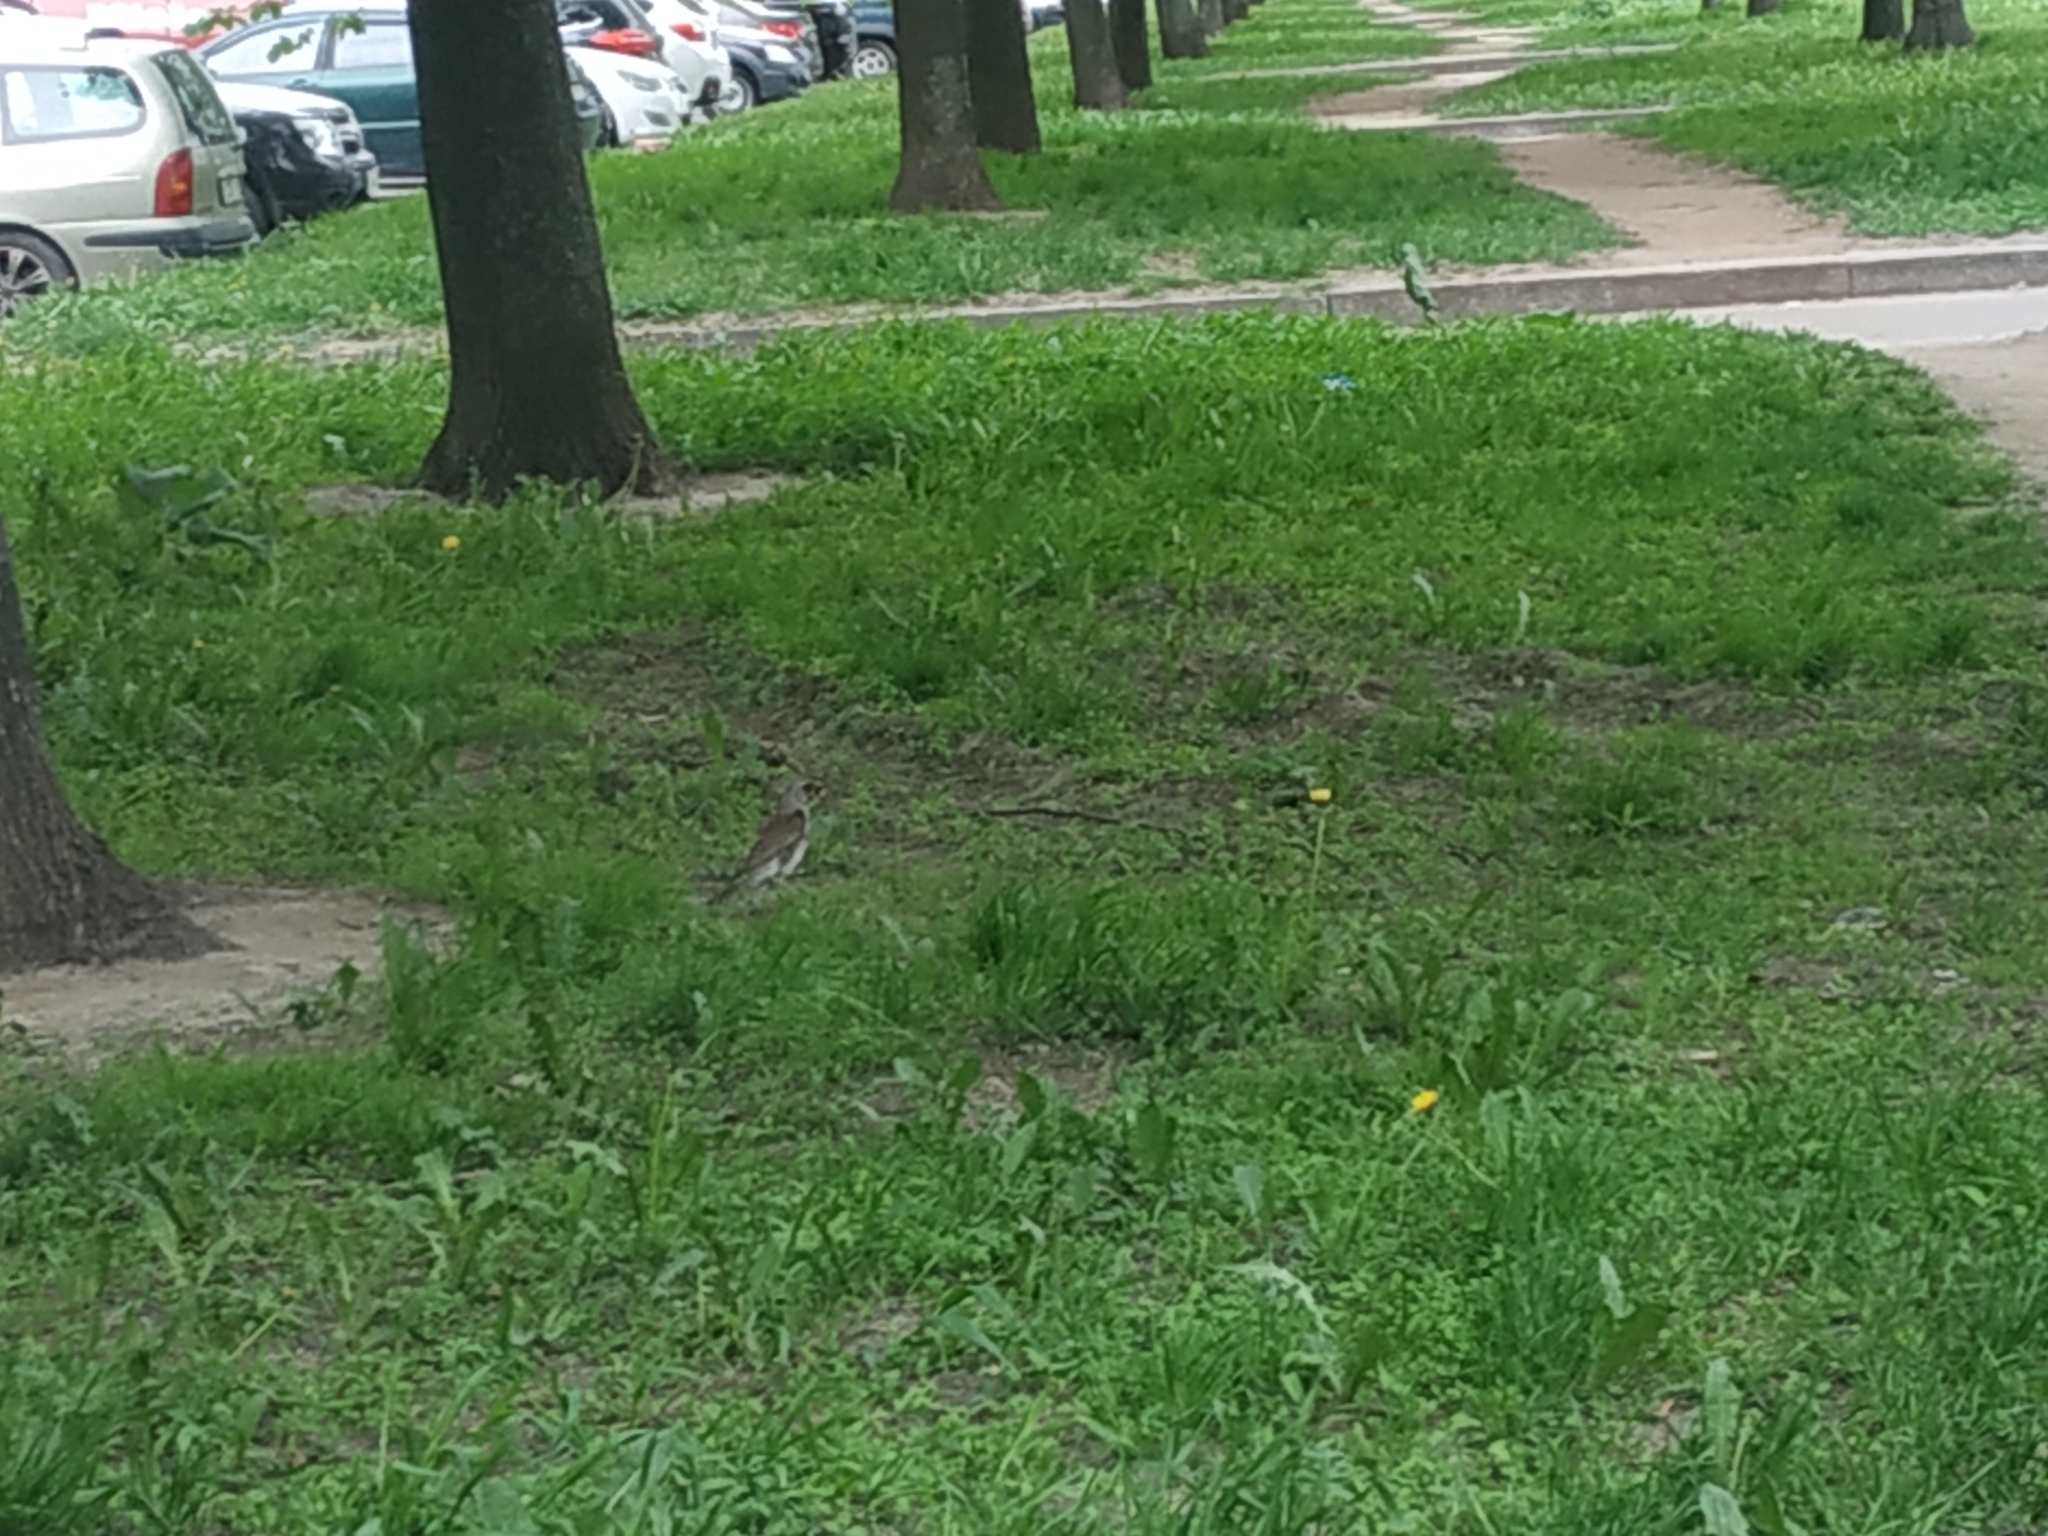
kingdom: Animalia
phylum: Chordata
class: Aves
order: Passeriformes
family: Turdidae
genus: Turdus
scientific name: Turdus pilaris
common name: Fieldfare
